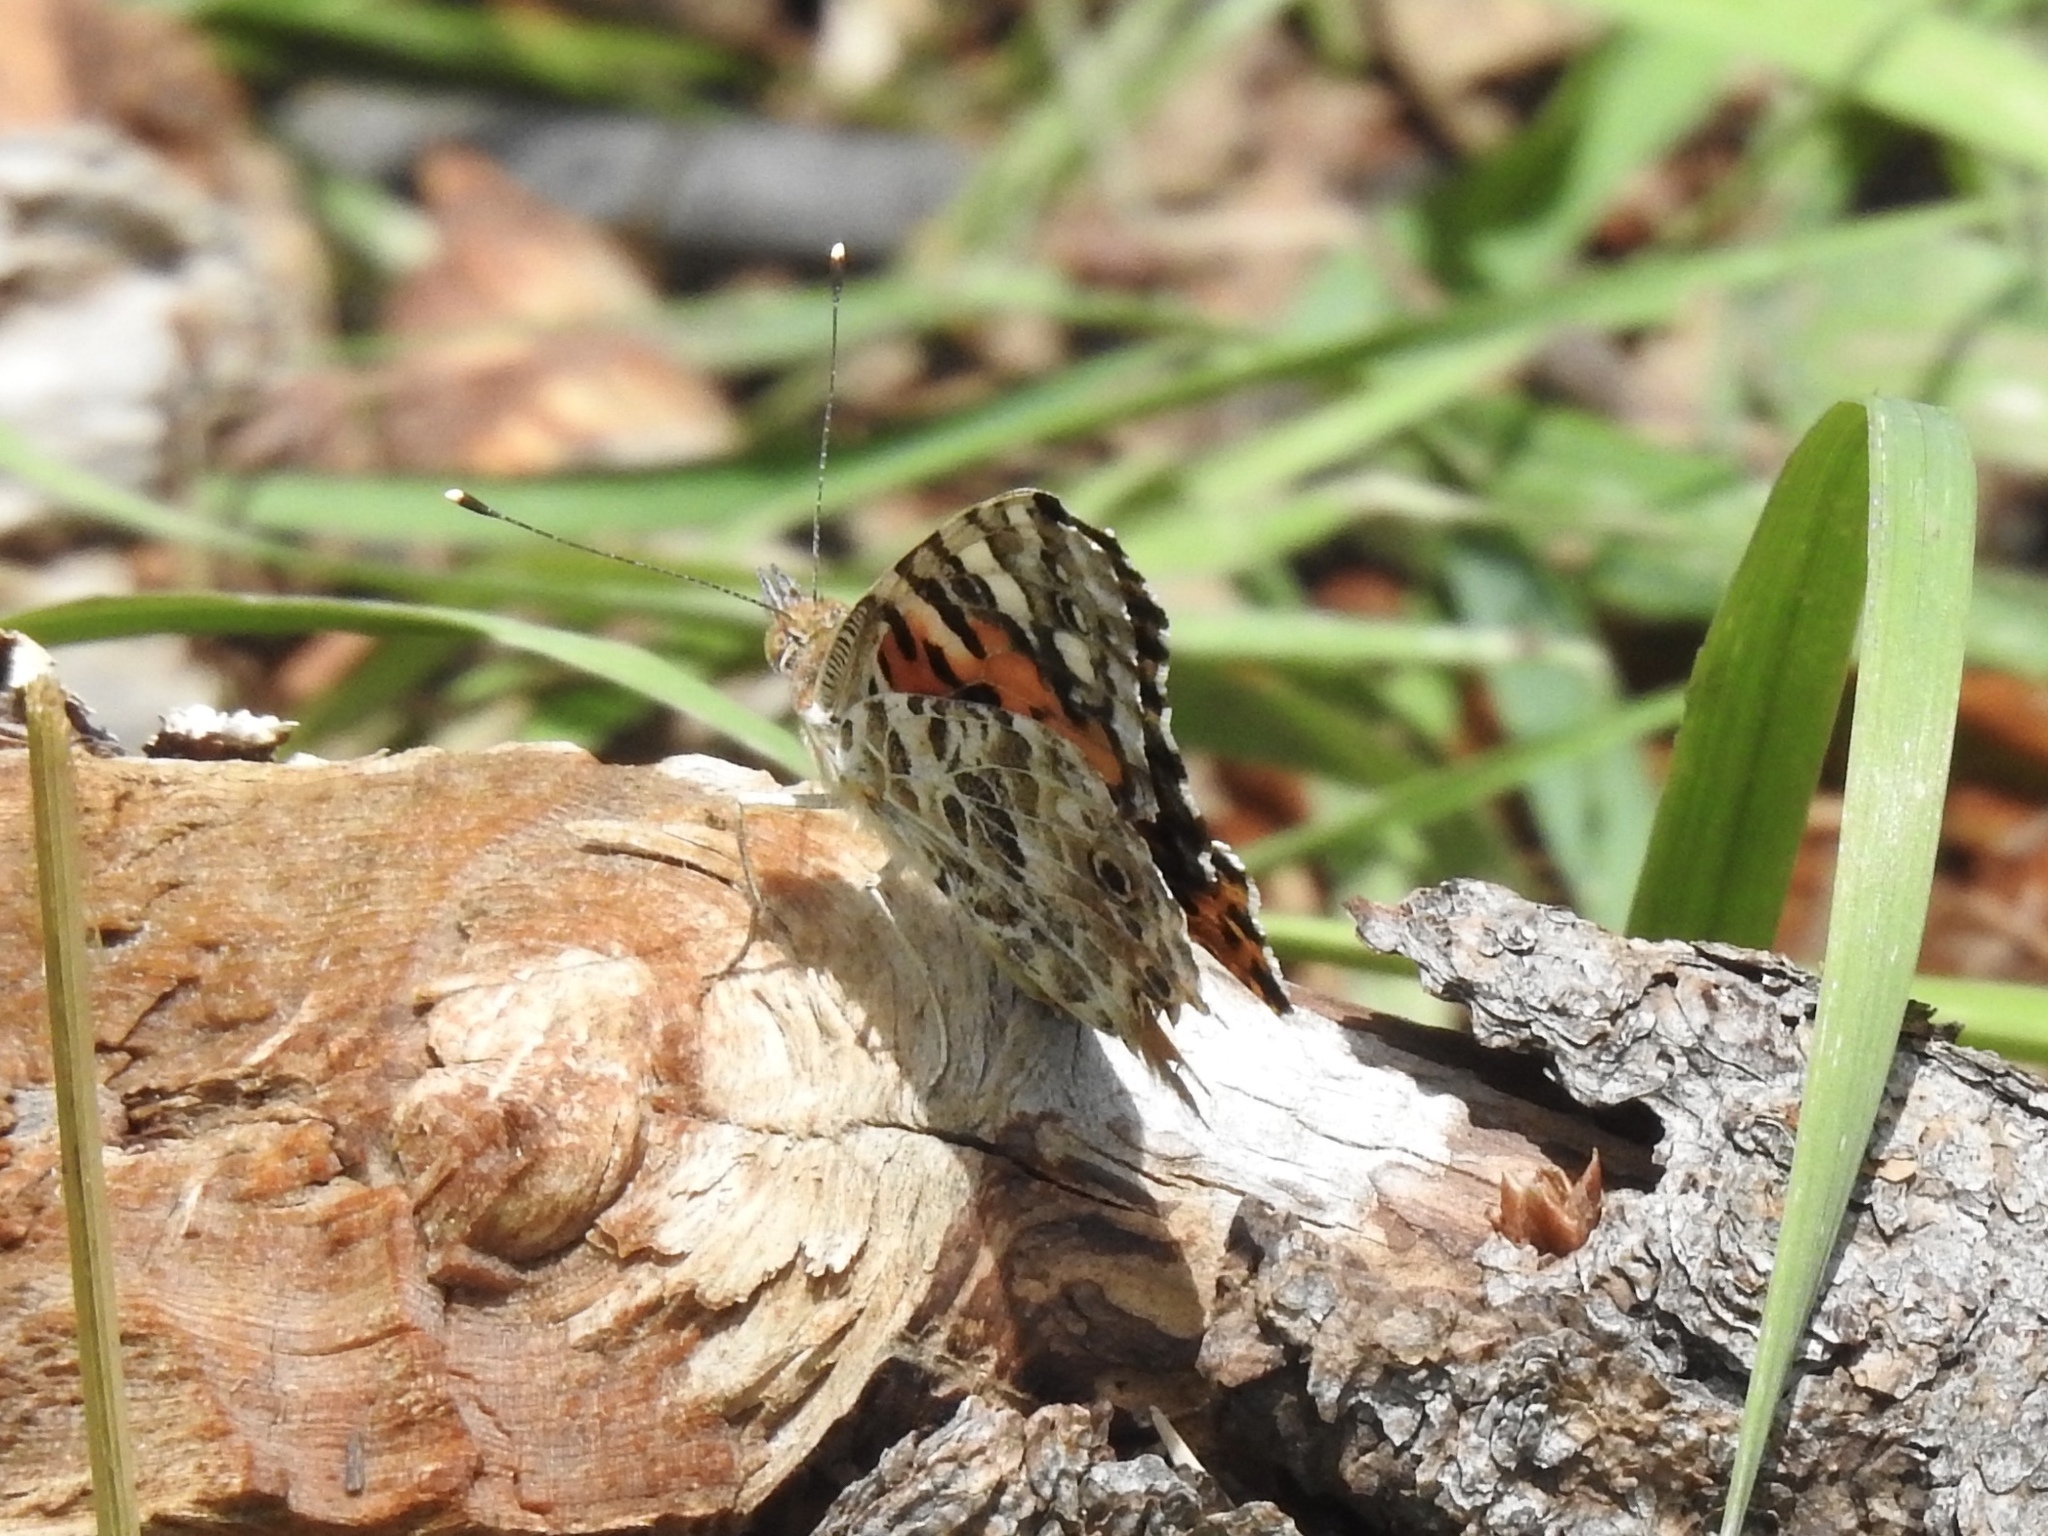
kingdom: Animalia
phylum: Arthropoda
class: Insecta
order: Lepidoptera
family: Nymphalidae
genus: Vanessa
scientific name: Vanessa cardui
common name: Painted lady
